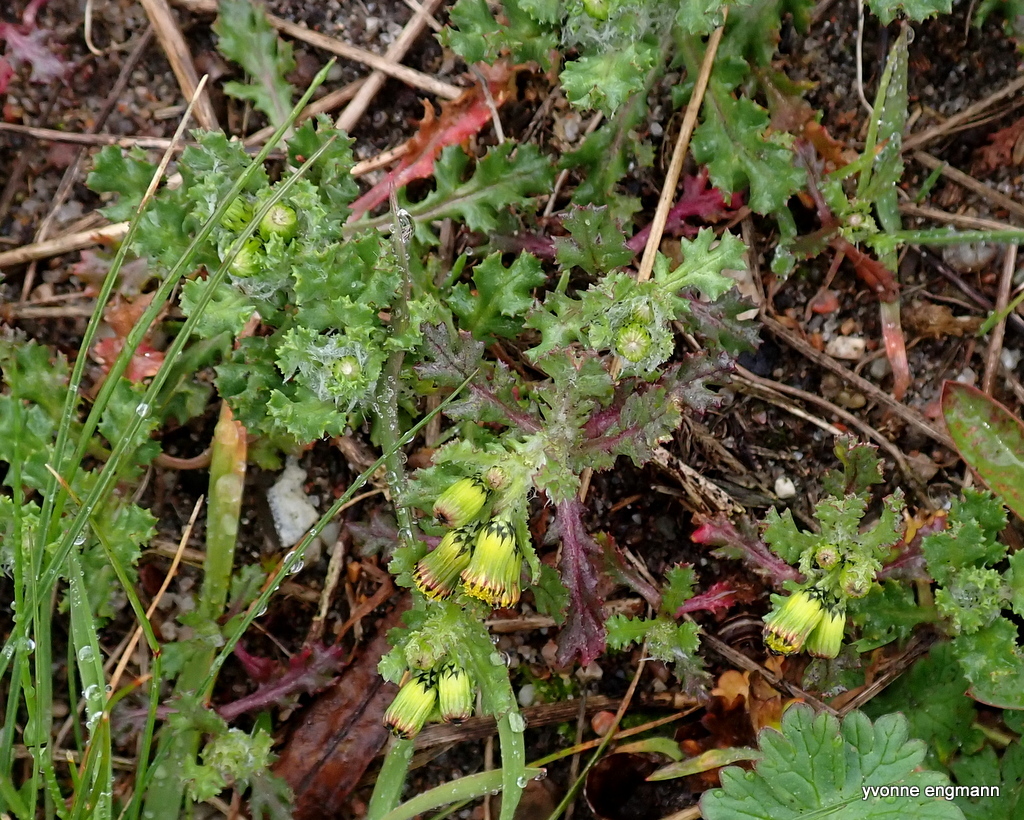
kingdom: Plantae
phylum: Tracheophyta
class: Magnoliopsida
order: Asterales
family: Asteraceae
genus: Senecio
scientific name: Senecio vulgaris
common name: Old-man-in-the-spring
